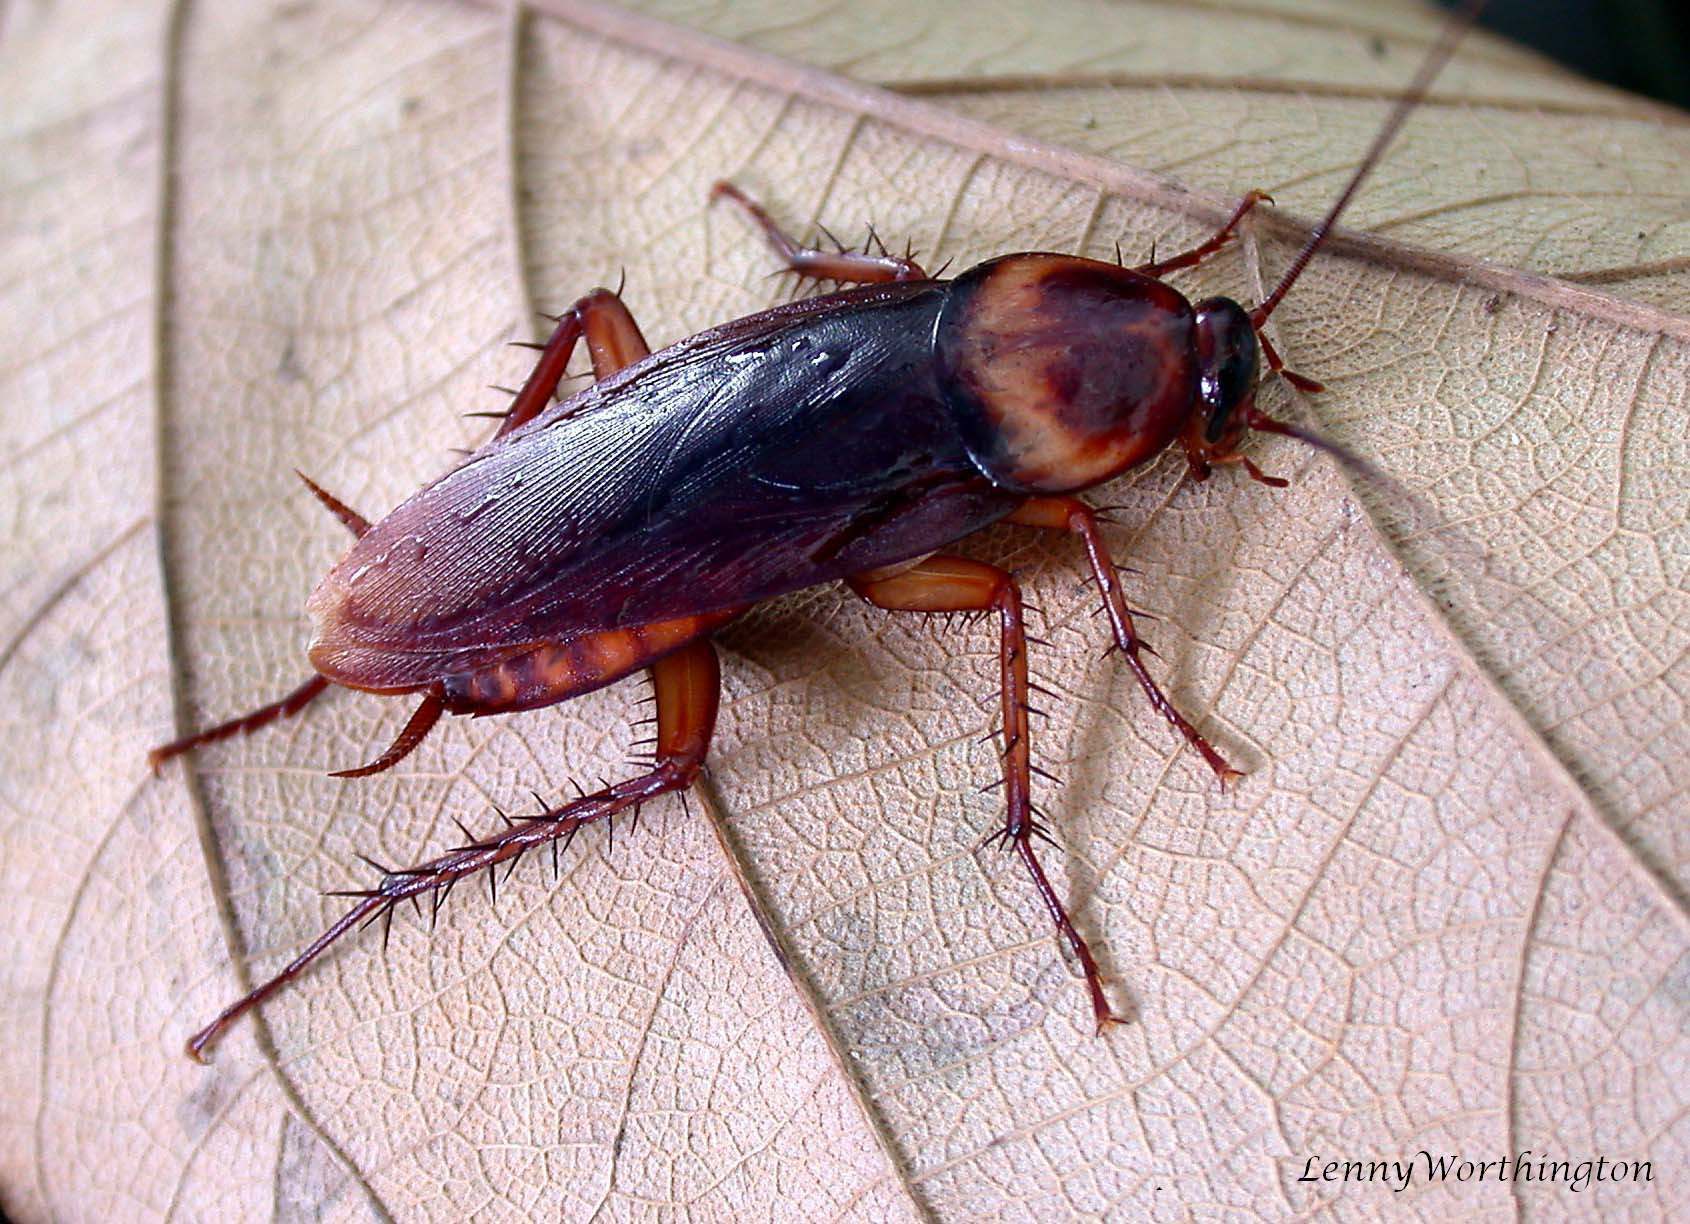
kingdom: Animalia
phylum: Arthropoda
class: Insecta
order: Blattodea
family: Blattidae
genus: Periplaneta
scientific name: Periplaneta americana
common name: American cockroach
